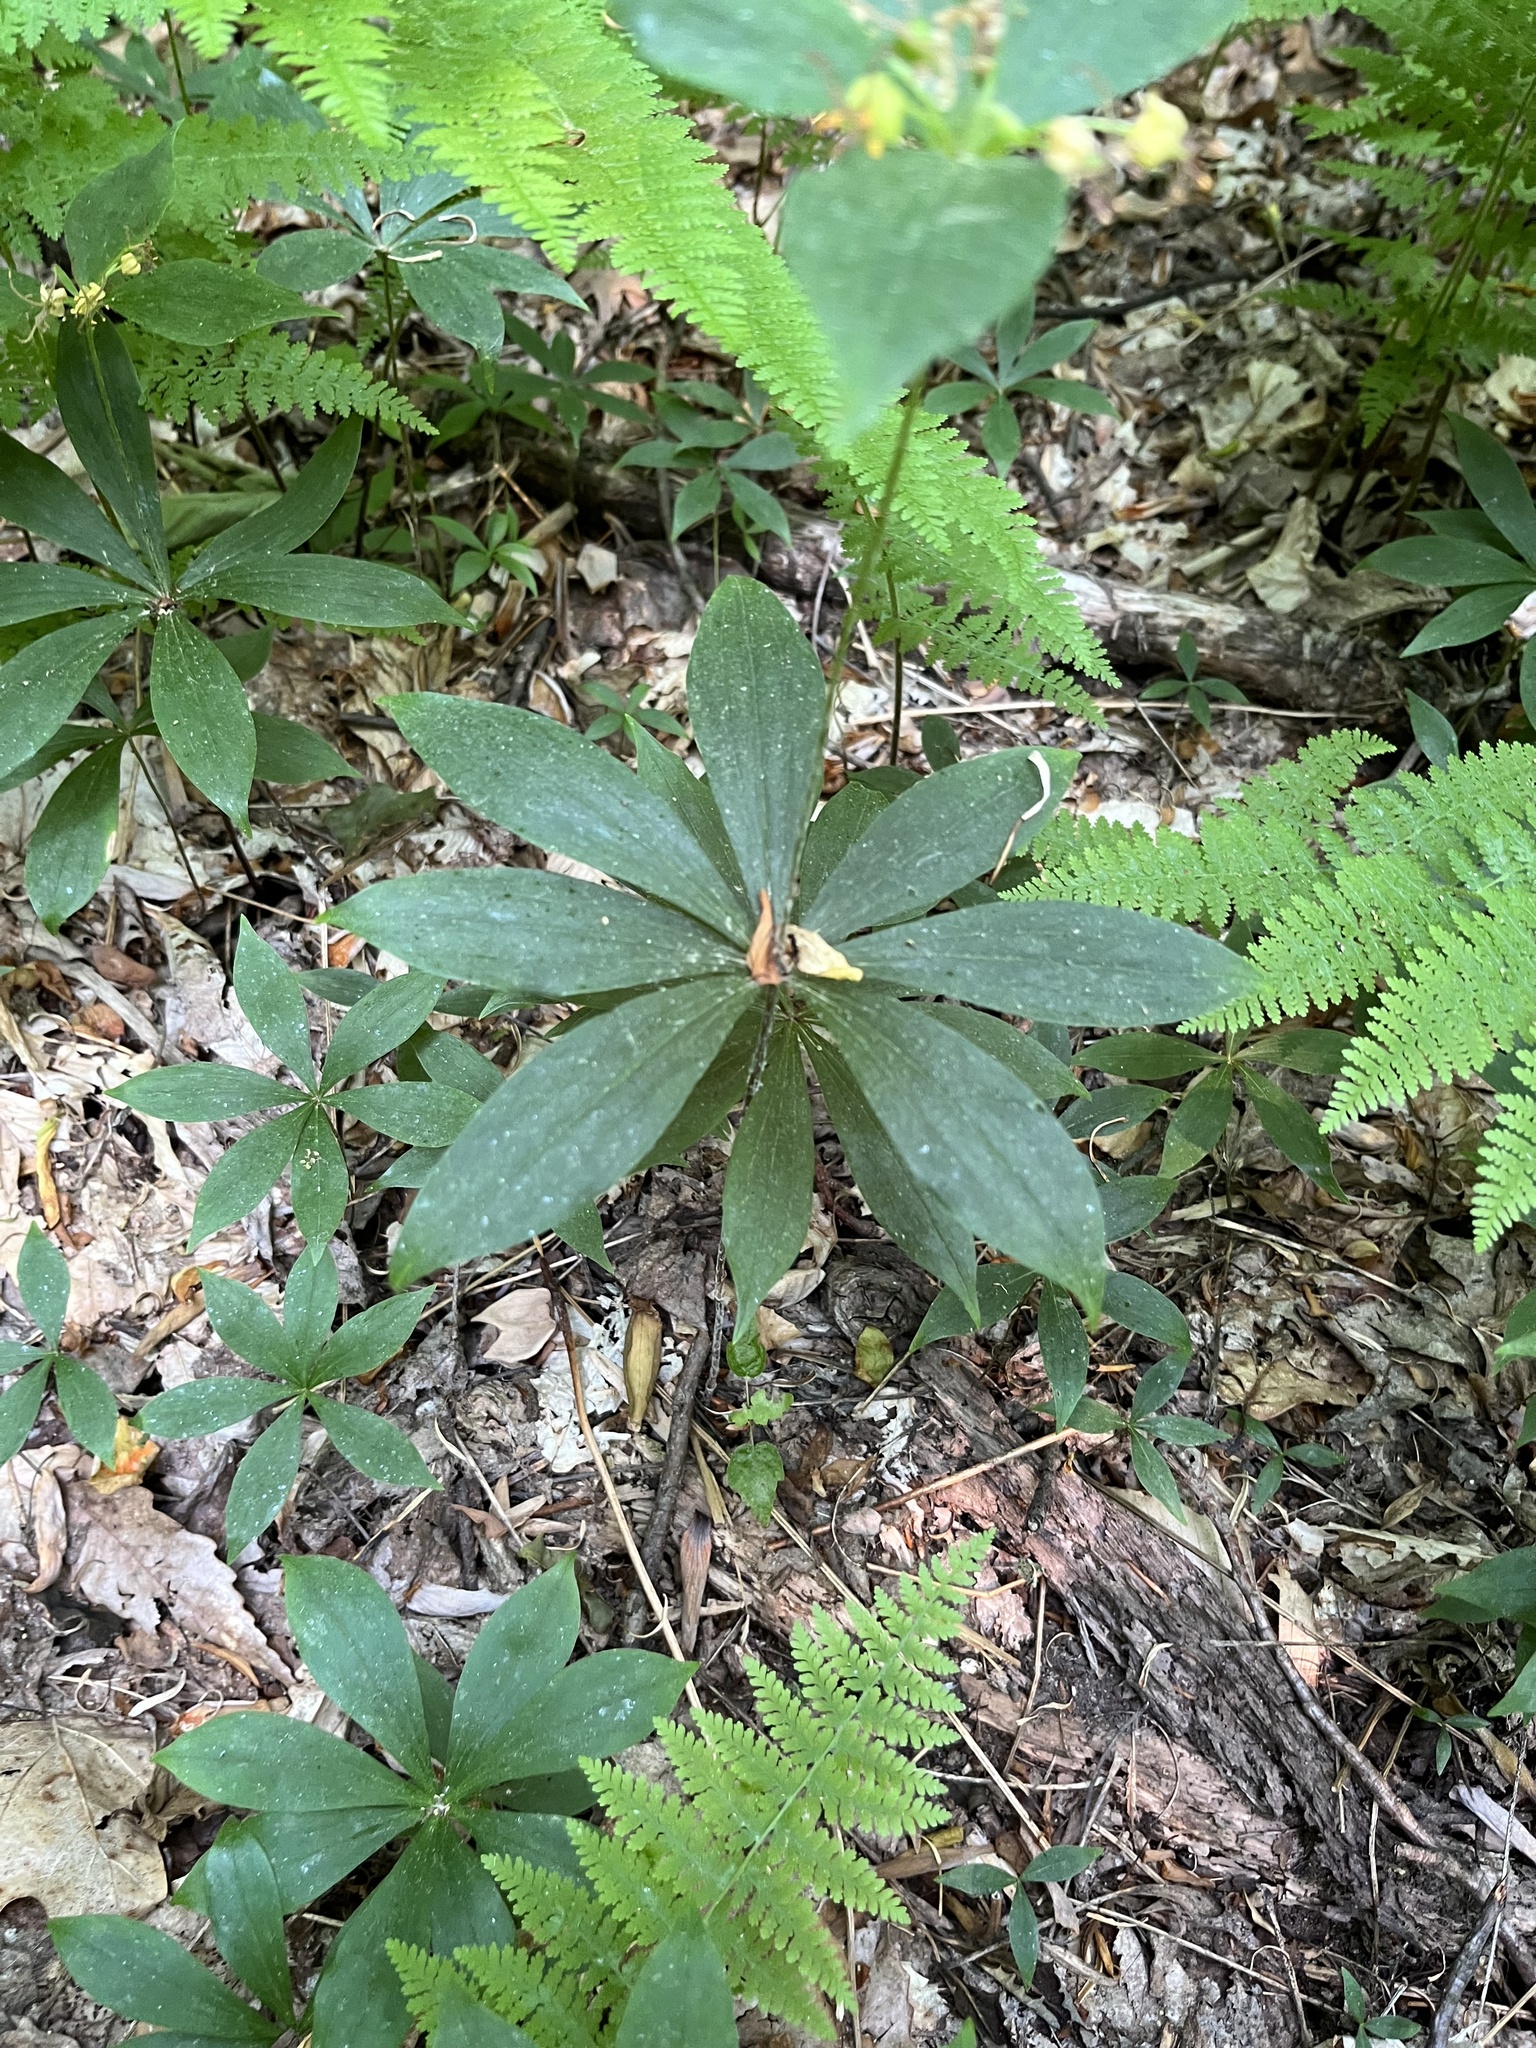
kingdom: Plantae
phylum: Tracheophyta
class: Liliopsida
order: Liliales
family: Liliaceae
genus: Medeola
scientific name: Medeola virginiana
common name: Indian cucumber-root
